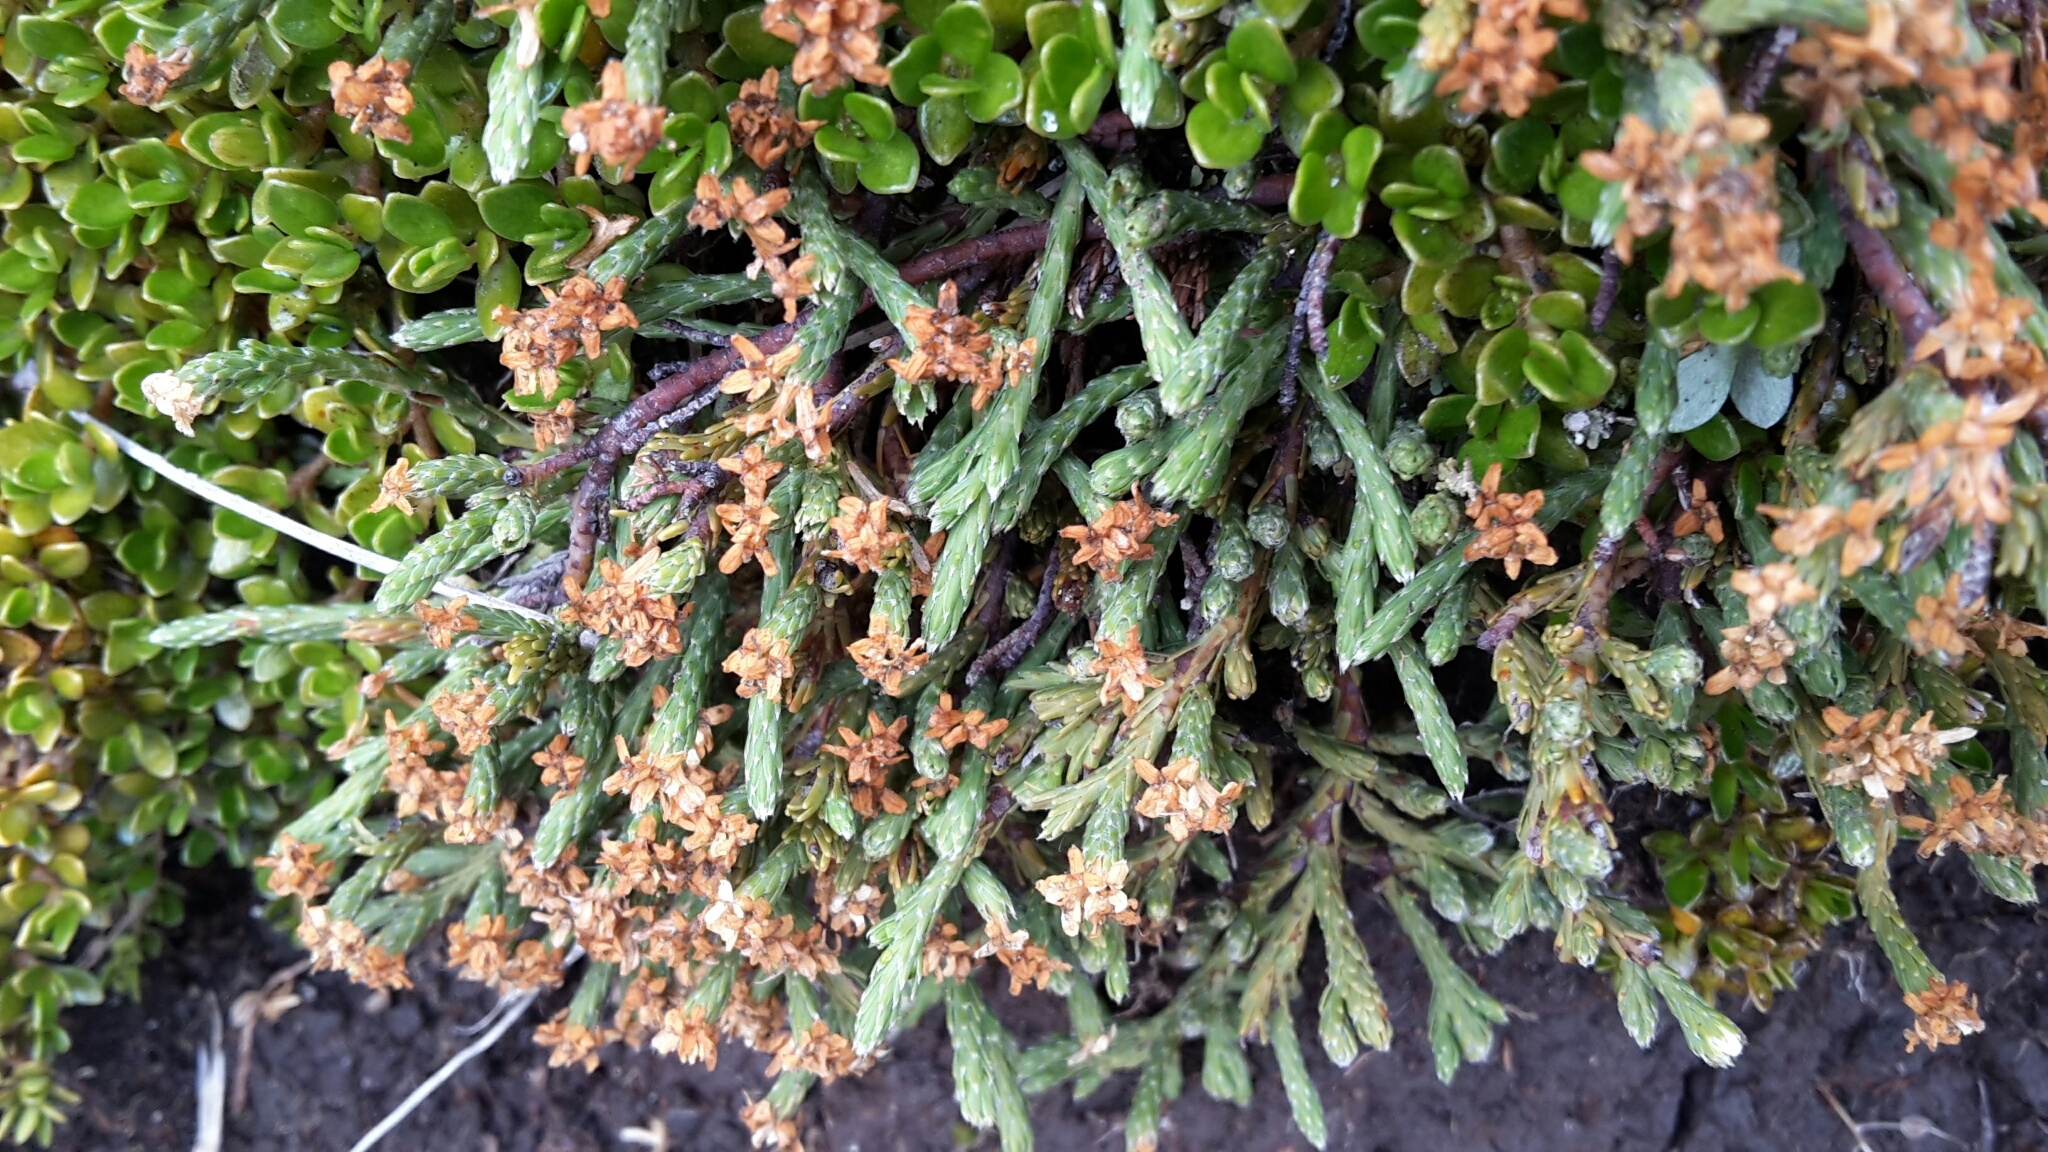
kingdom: Plantae
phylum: Tracheophyta
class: Magnoliopsida
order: Malvales
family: Thymelaeaceae
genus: Kelleria
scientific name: Kelleria dieffenbachii
